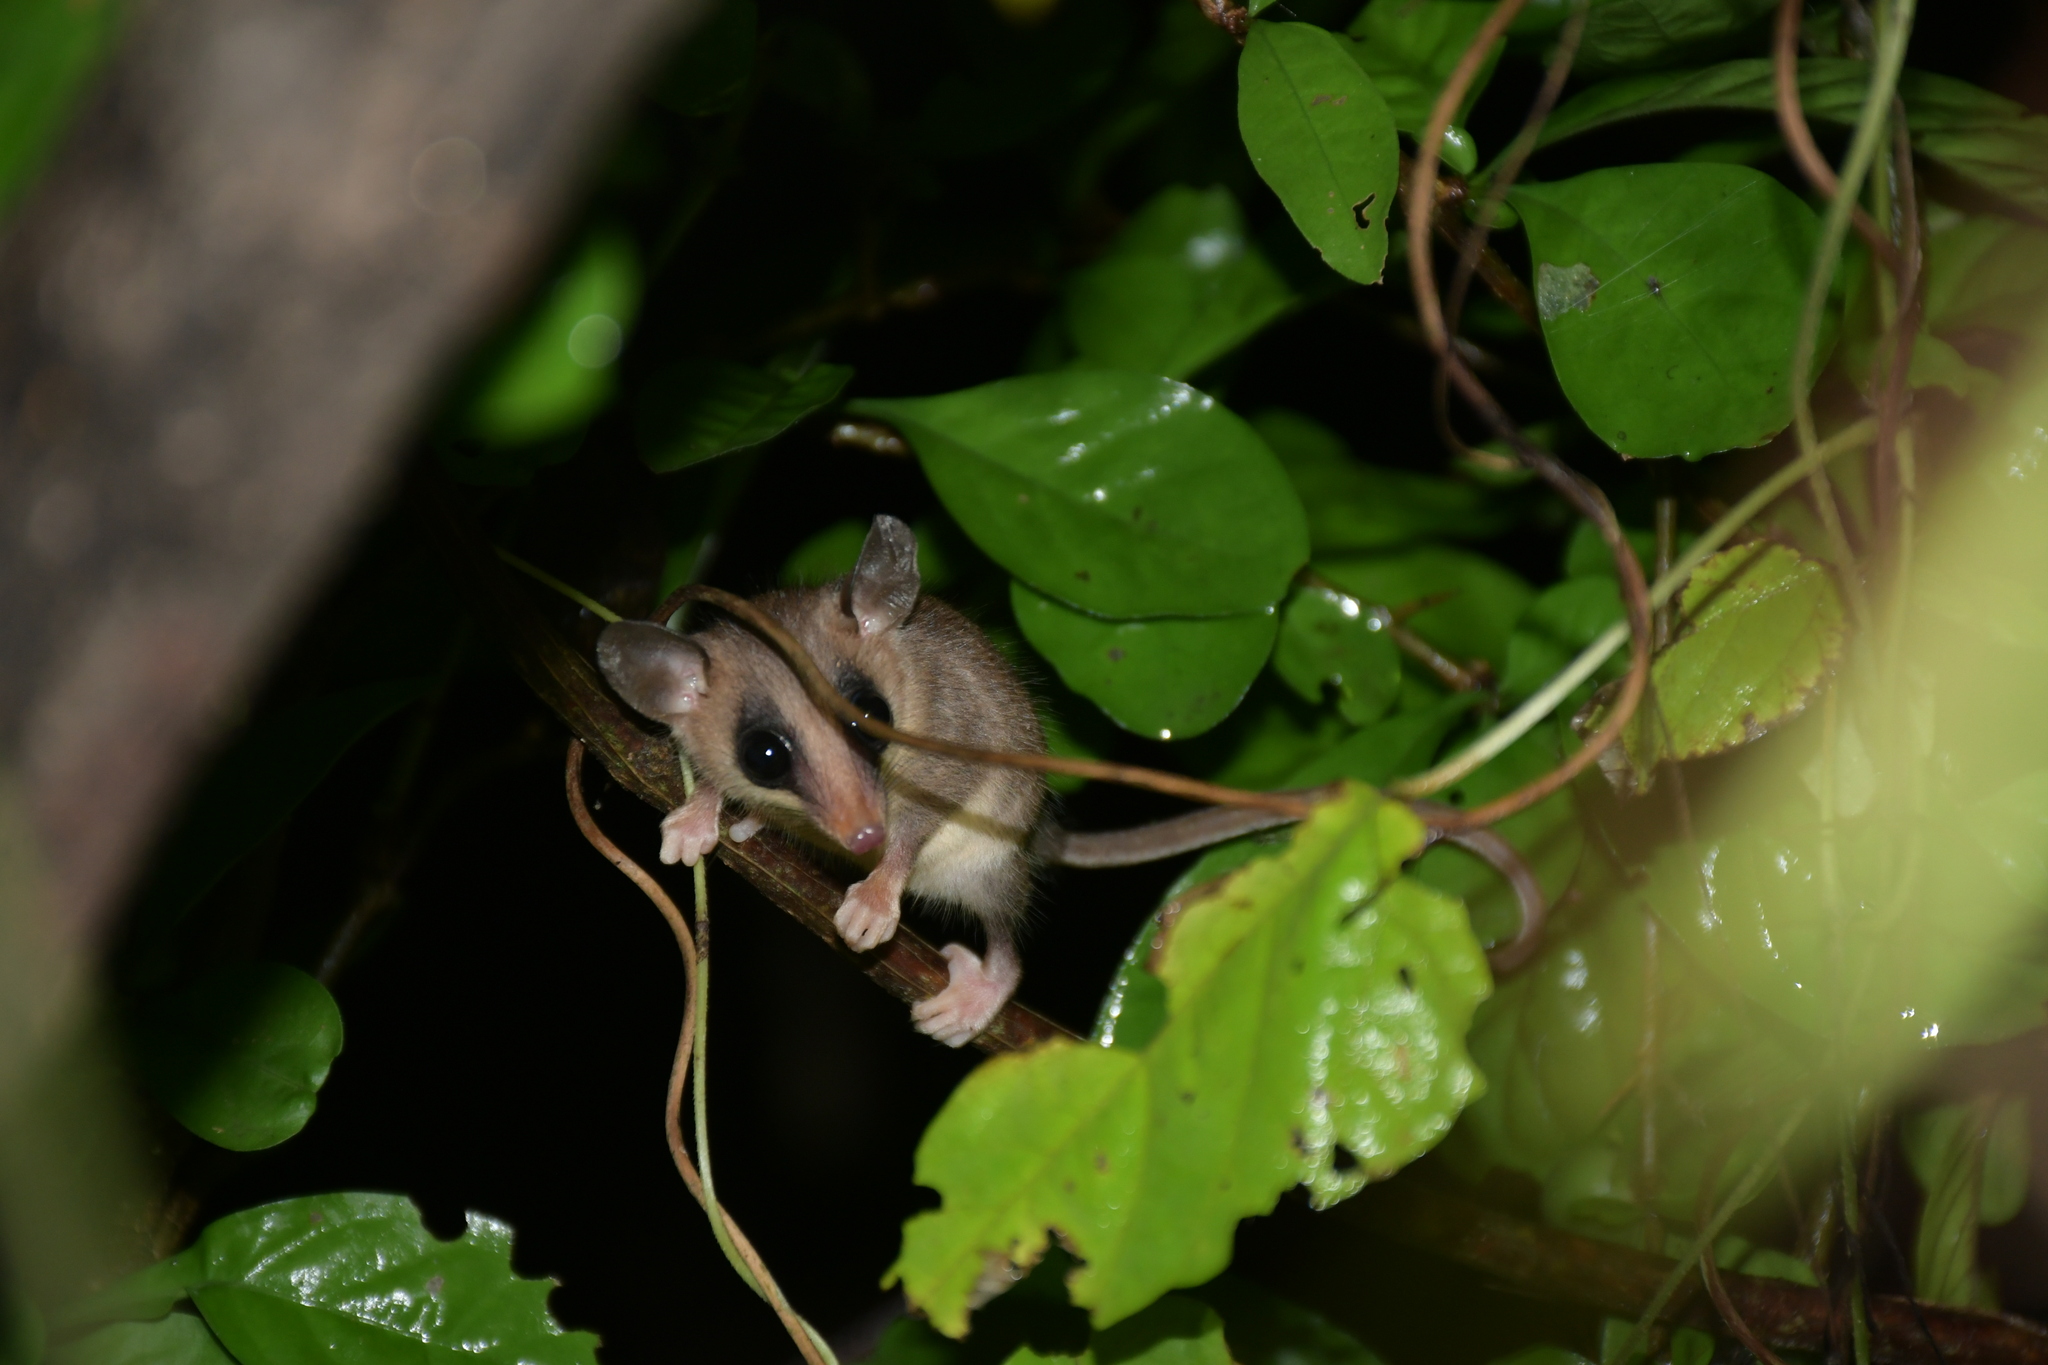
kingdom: Animalia
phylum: Chordata
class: Mammalia
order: Didelphimorphia
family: Didelphidae
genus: Marmosa
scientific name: Marmosa mexicana
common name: Mexican mouse opossum
